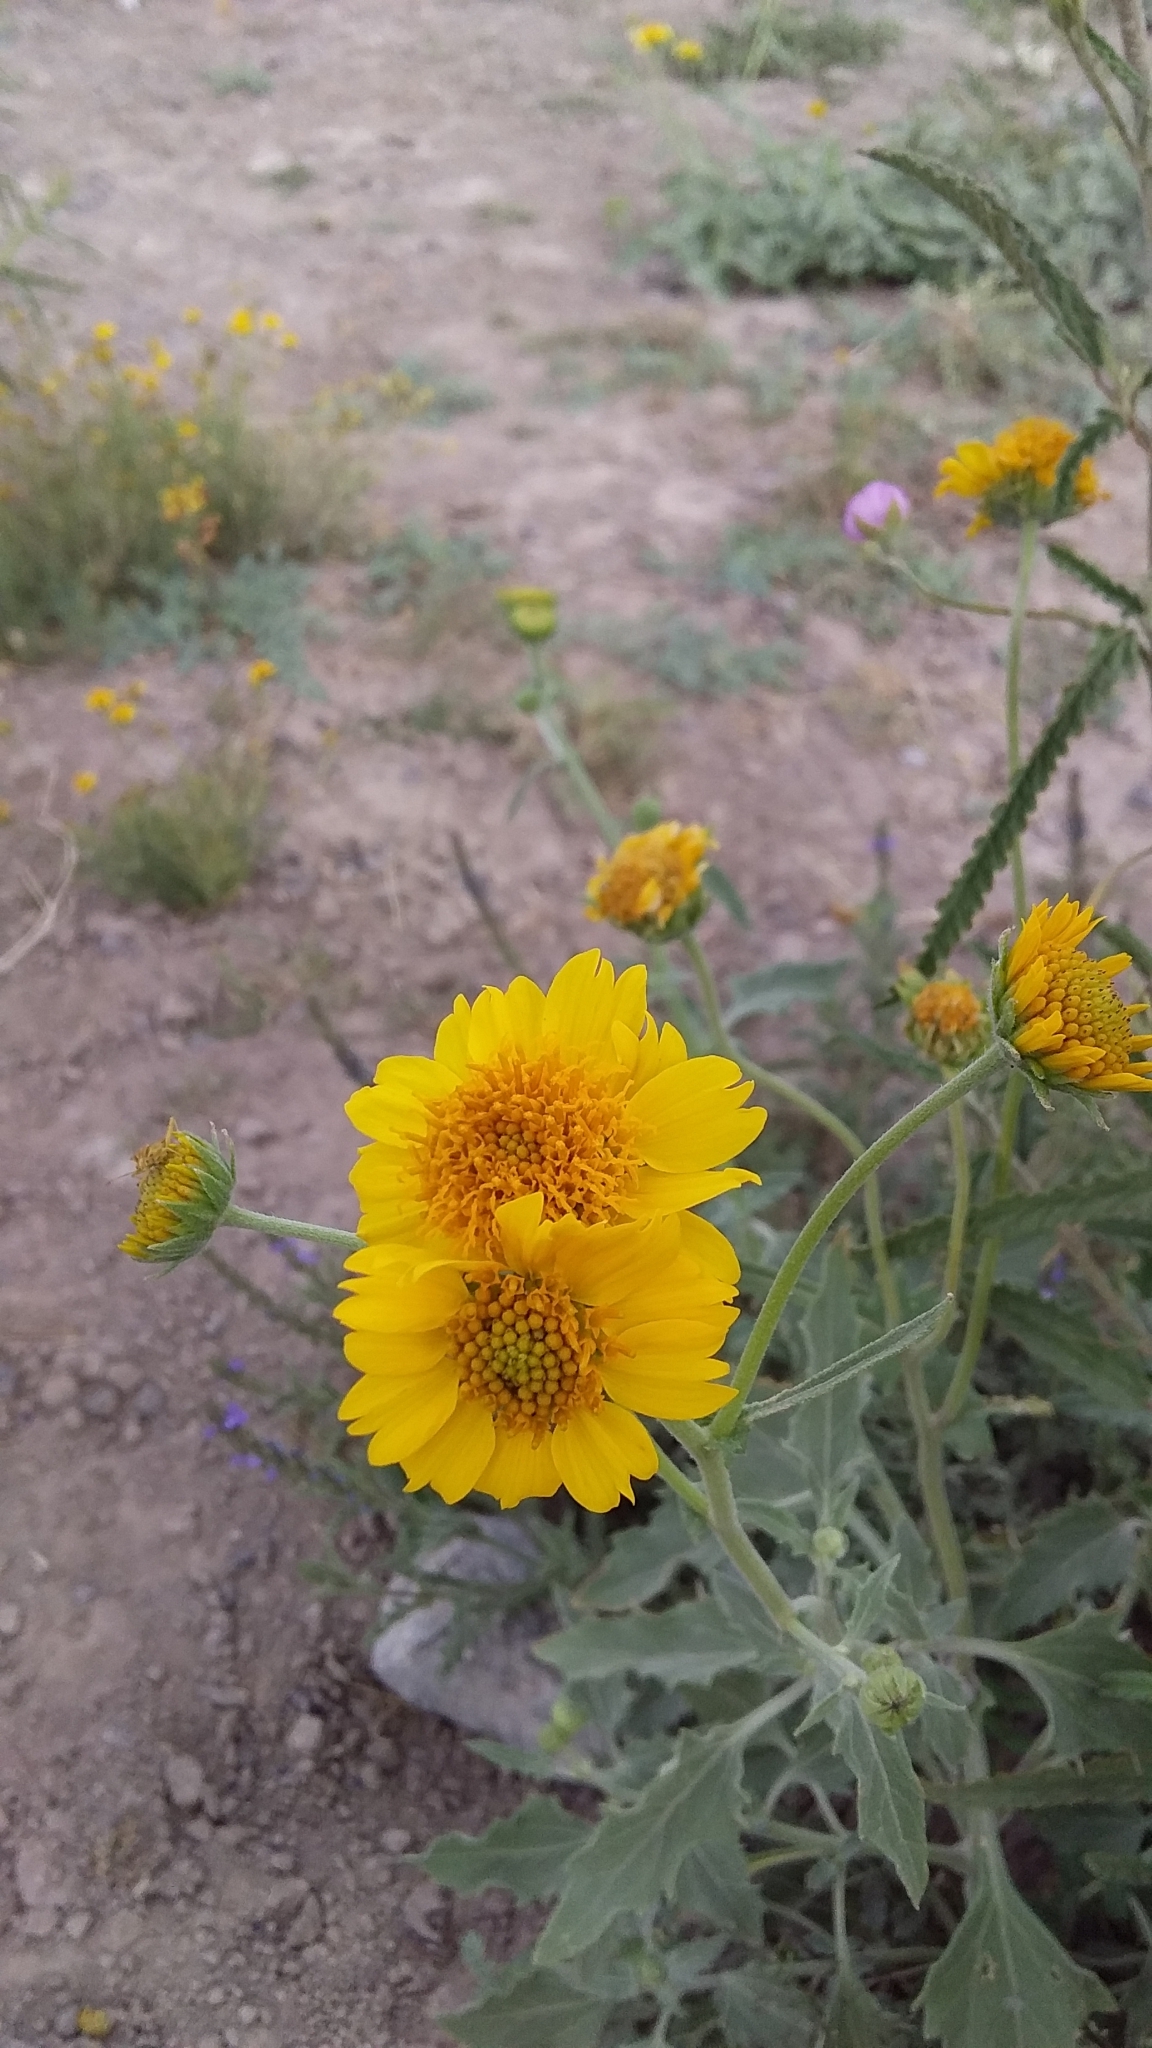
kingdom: Plantae
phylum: Tracheophyta
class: Magnoliopsida
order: Asterales
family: Asteraceae
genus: Verbesina
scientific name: Verbesina encelioides
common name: Golden crownbeard
